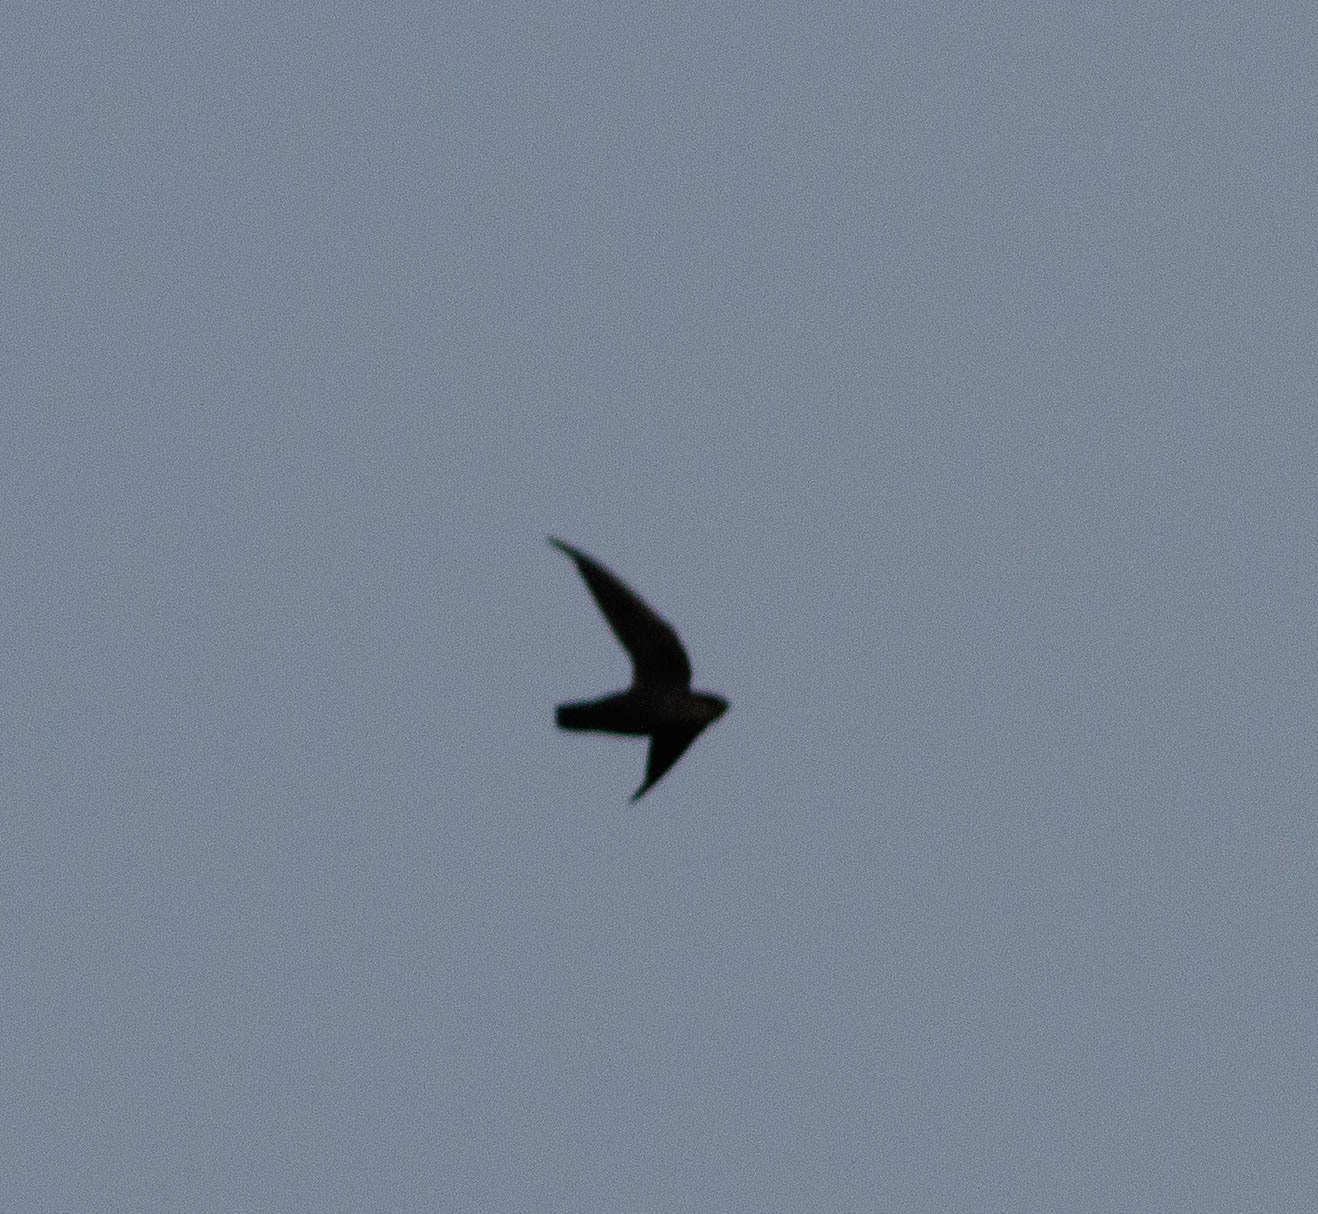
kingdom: Animalia
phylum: Chordata
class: Aves
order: Apodiformes
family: Apodidae
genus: Chaetura
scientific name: Chaetura pelagica
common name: Chimney swift
